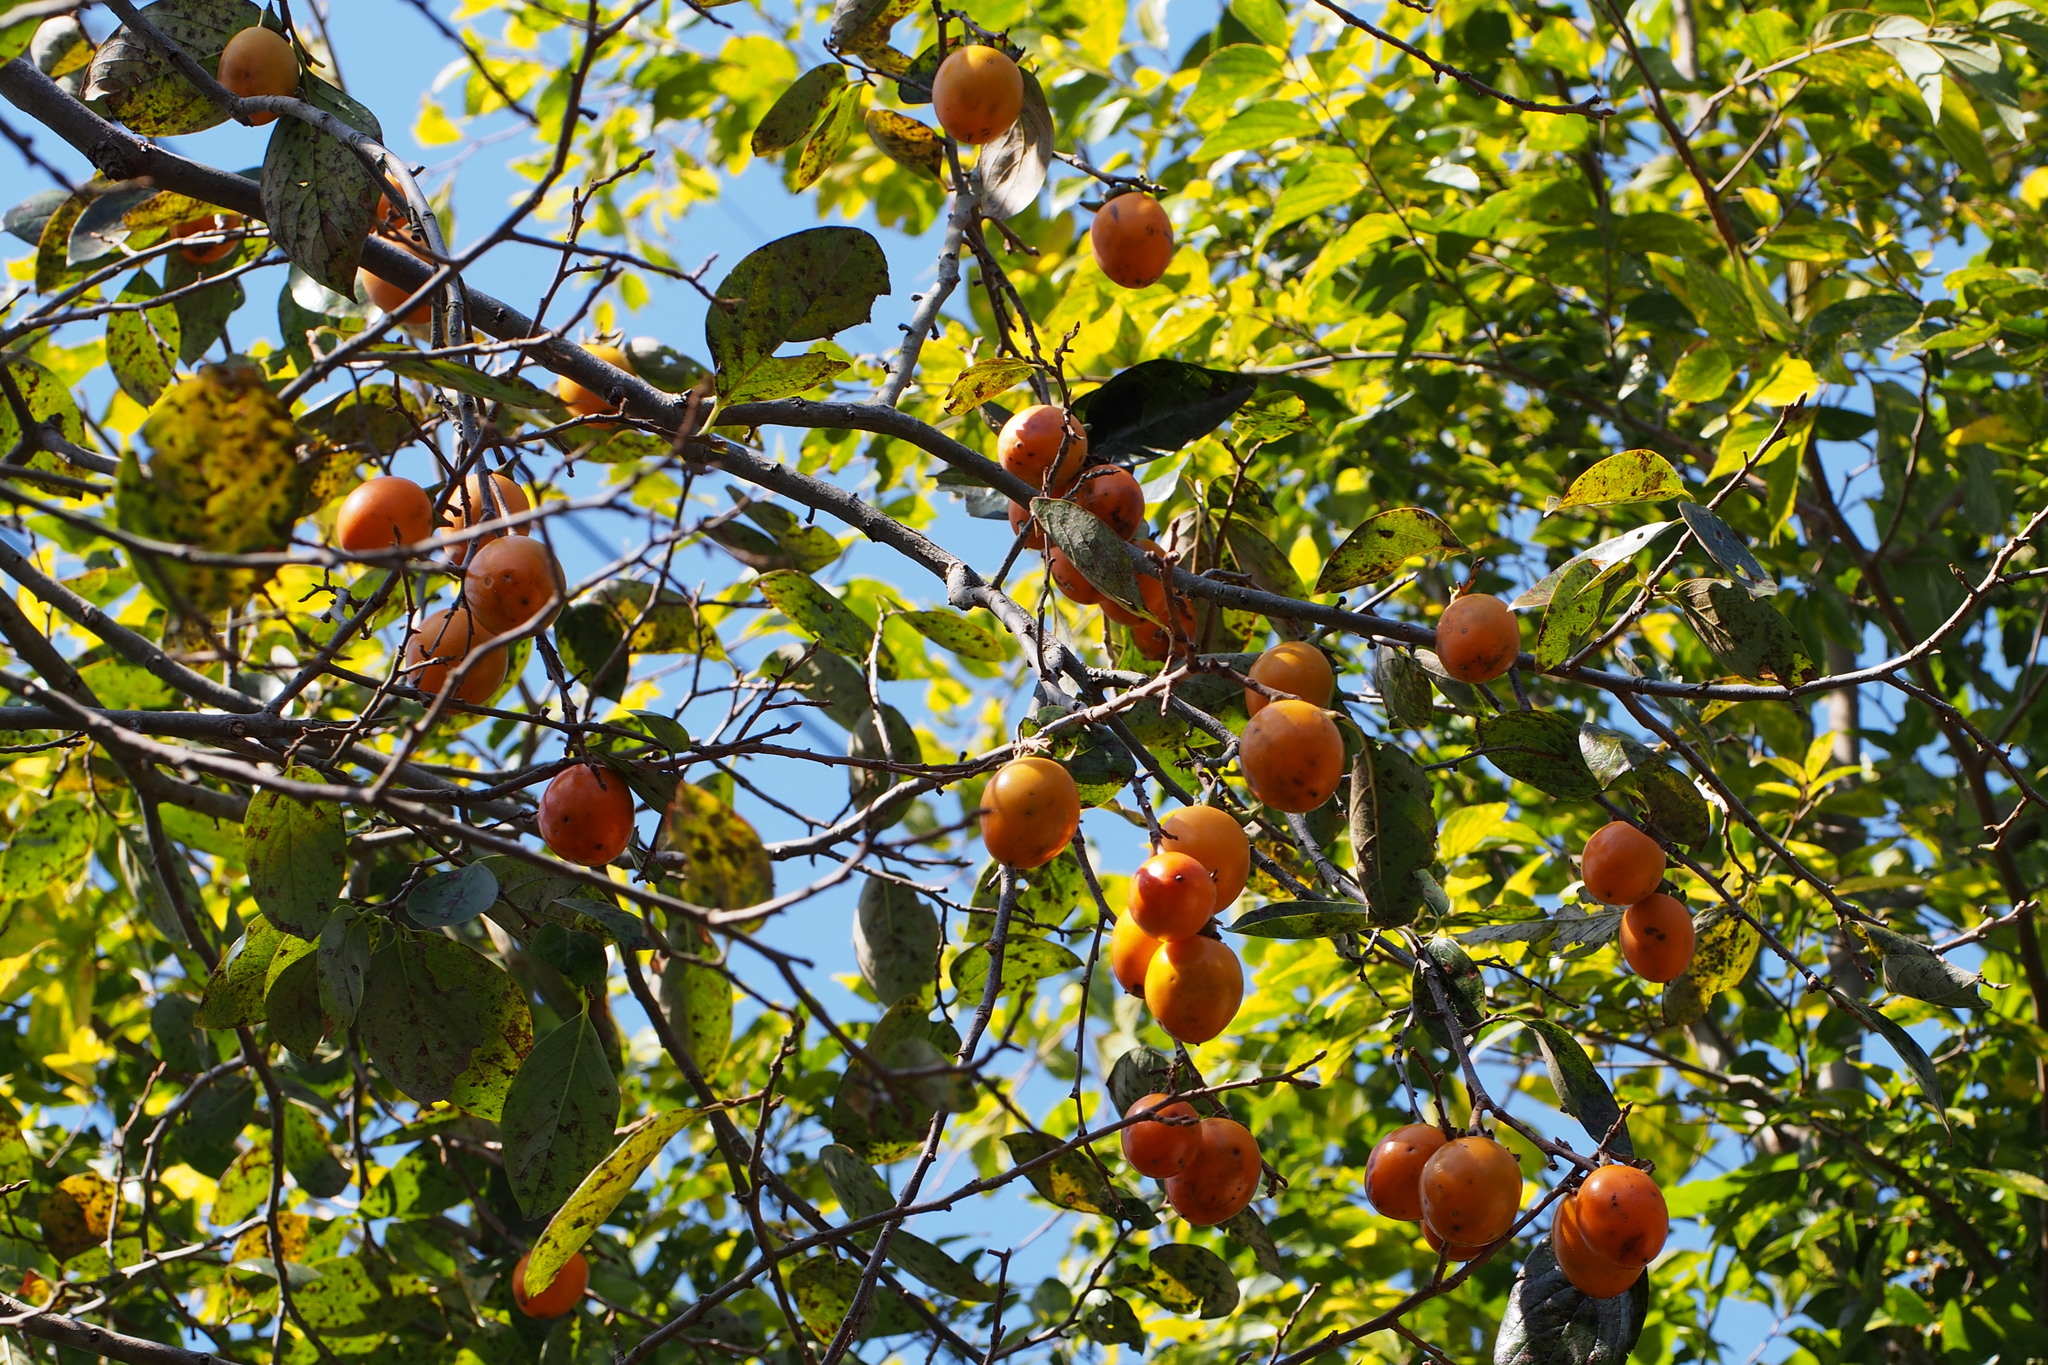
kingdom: Plantae
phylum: Tracheophyta
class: Magnoliopsida
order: Ericales
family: Ebenaceae
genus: Diospyros
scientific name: Diospyros kaki
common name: Persimmon
